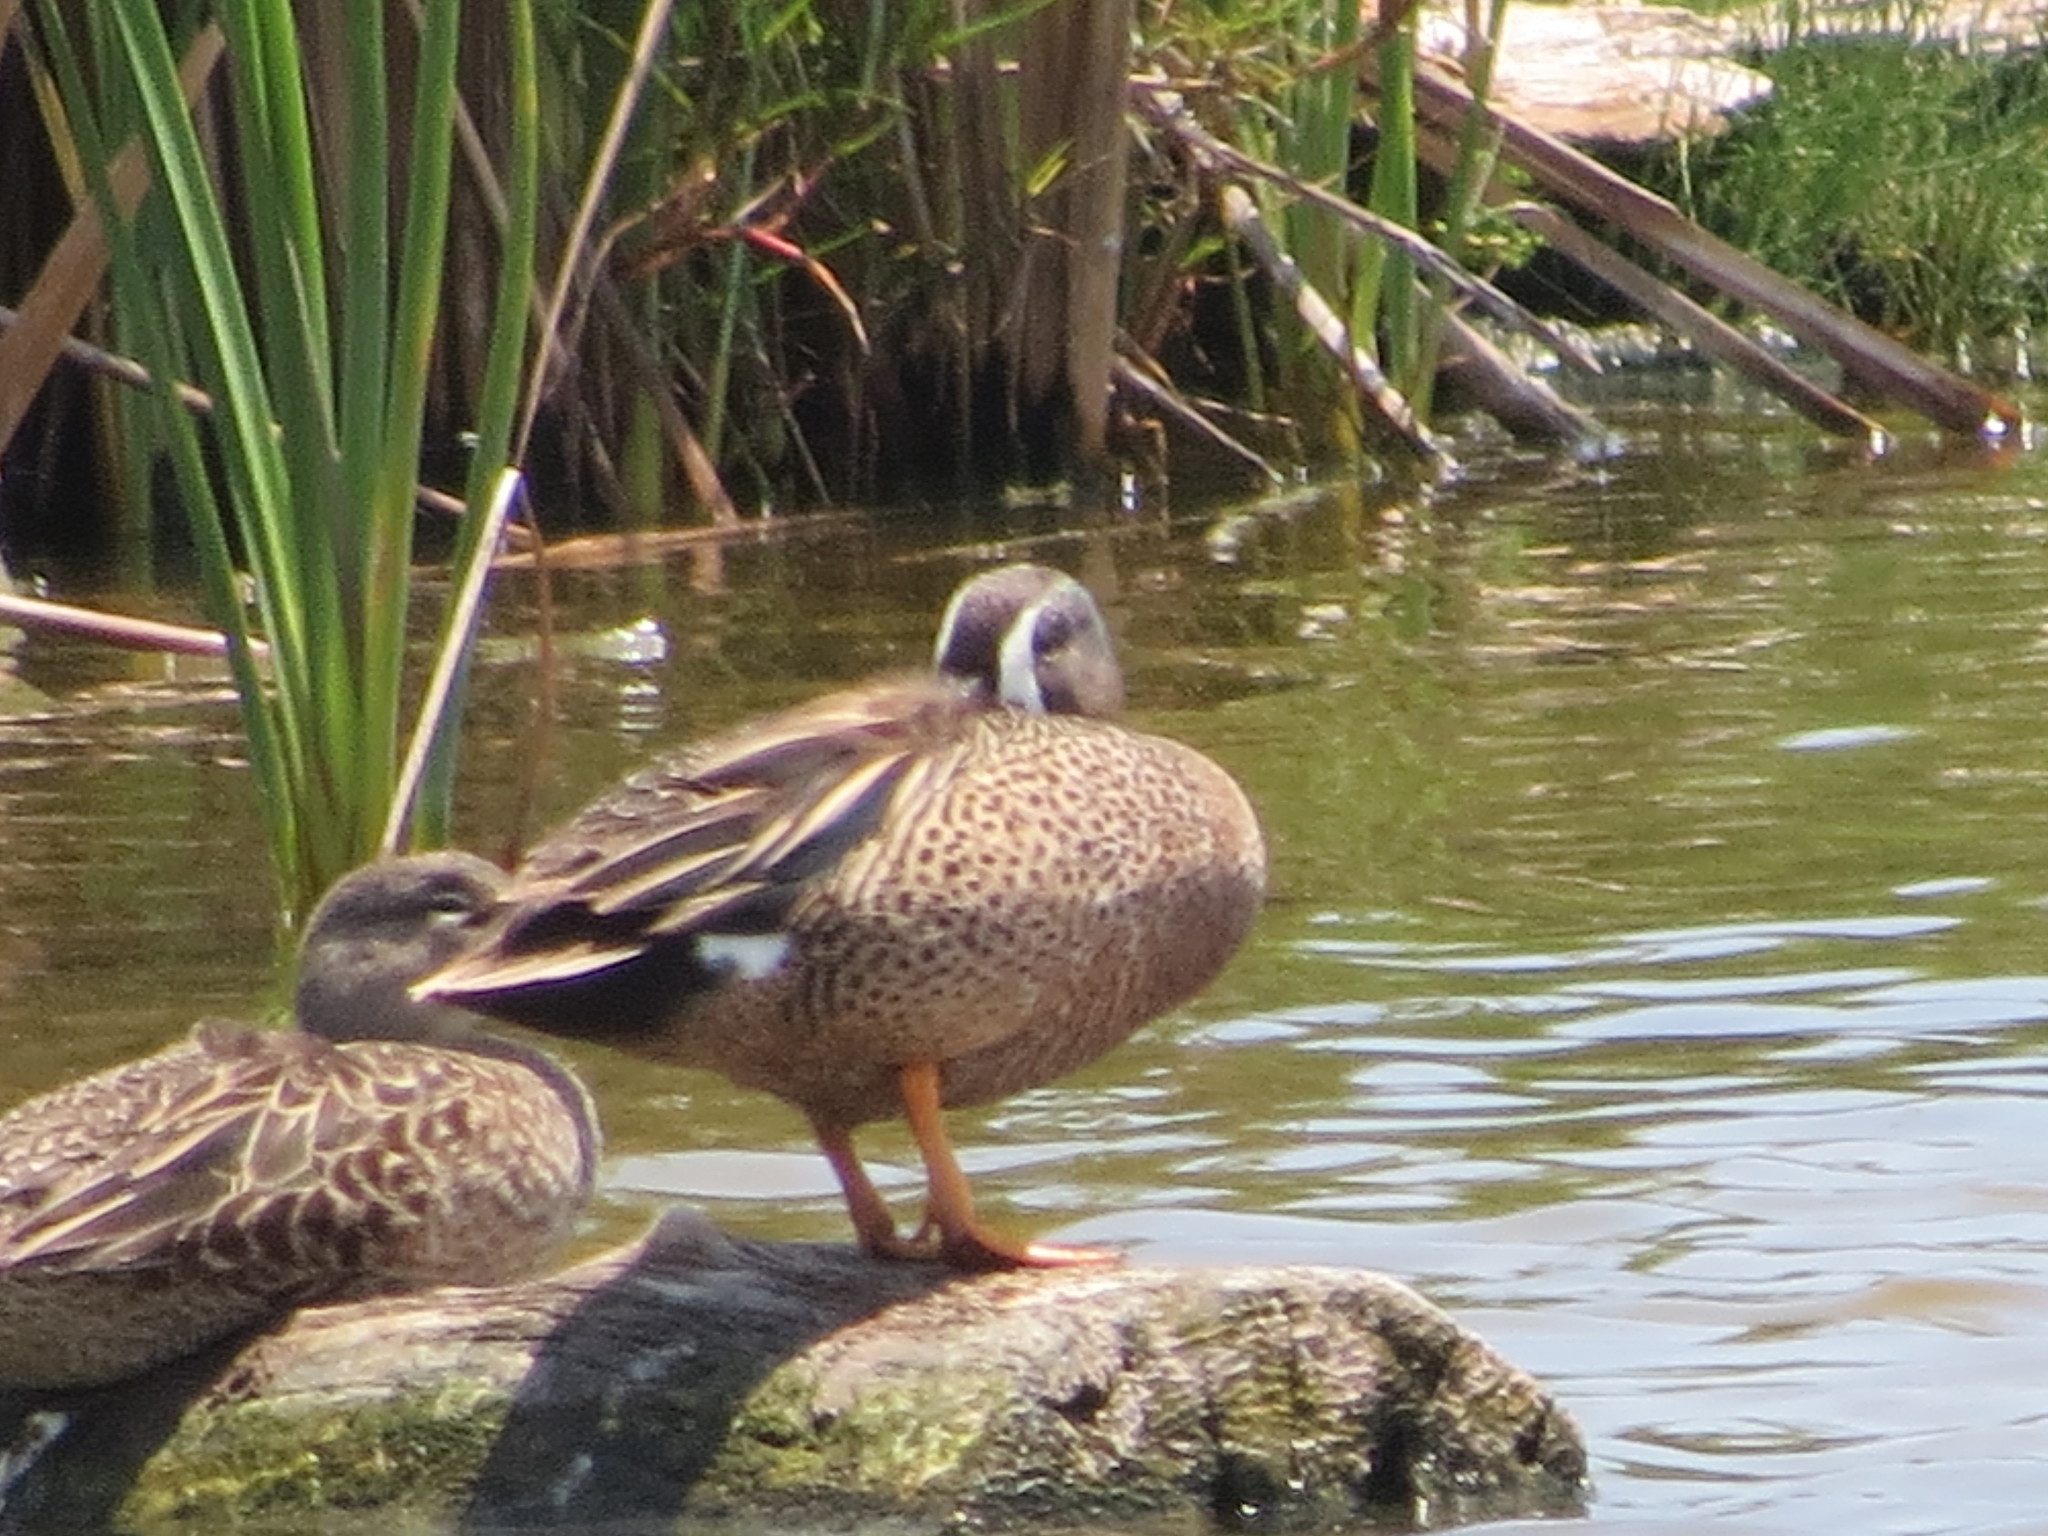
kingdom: Animalia
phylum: Chordata
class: Aves
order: Anseriformes
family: Anatidae
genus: Spatula
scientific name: Spatula discors
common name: Blue-winged teal
